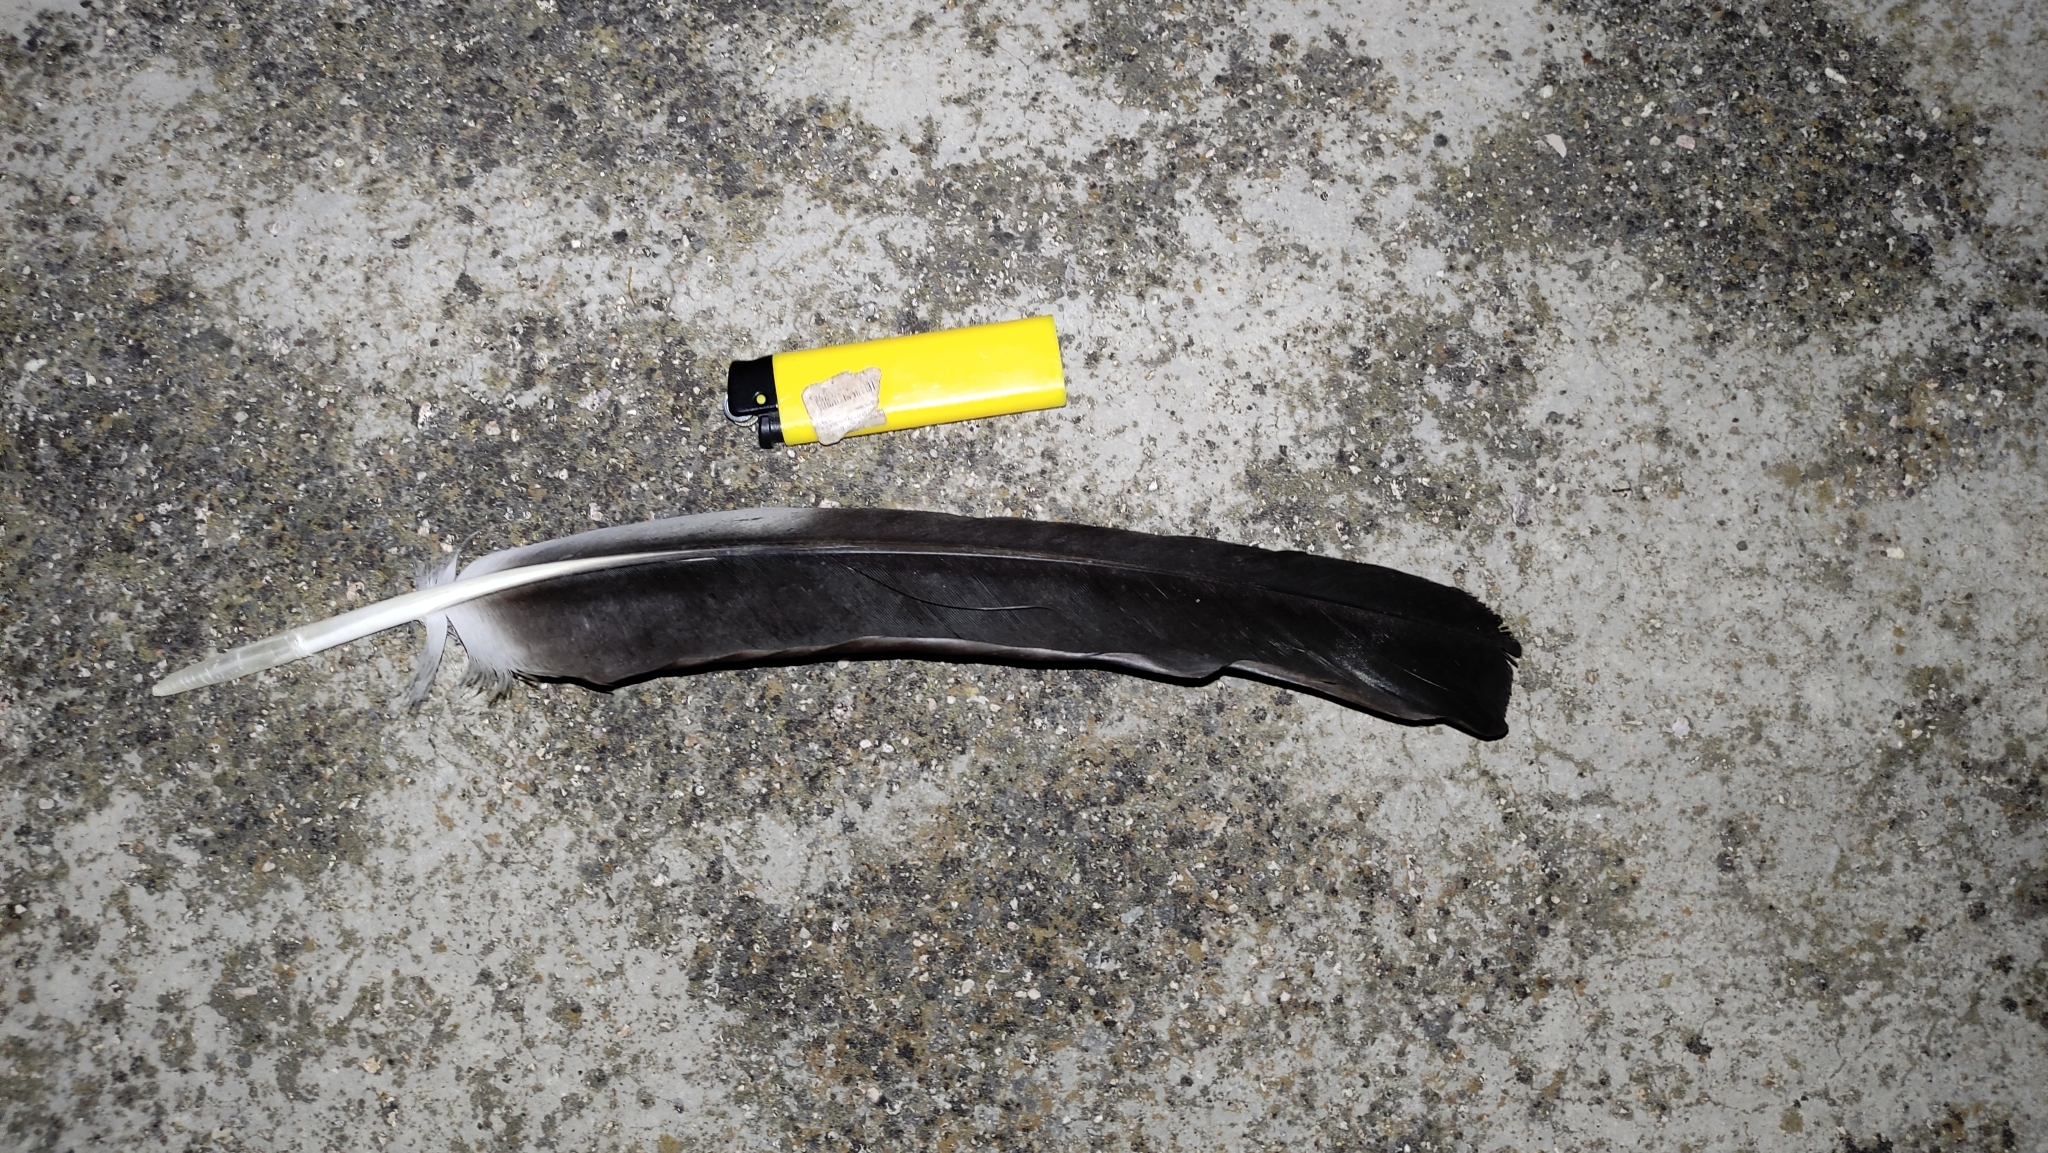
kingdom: Animalia
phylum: Chordata
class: Aves
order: Ciconiiformes
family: Ciconiidae
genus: Ciconia
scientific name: Ciconia ciconia
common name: White stork
